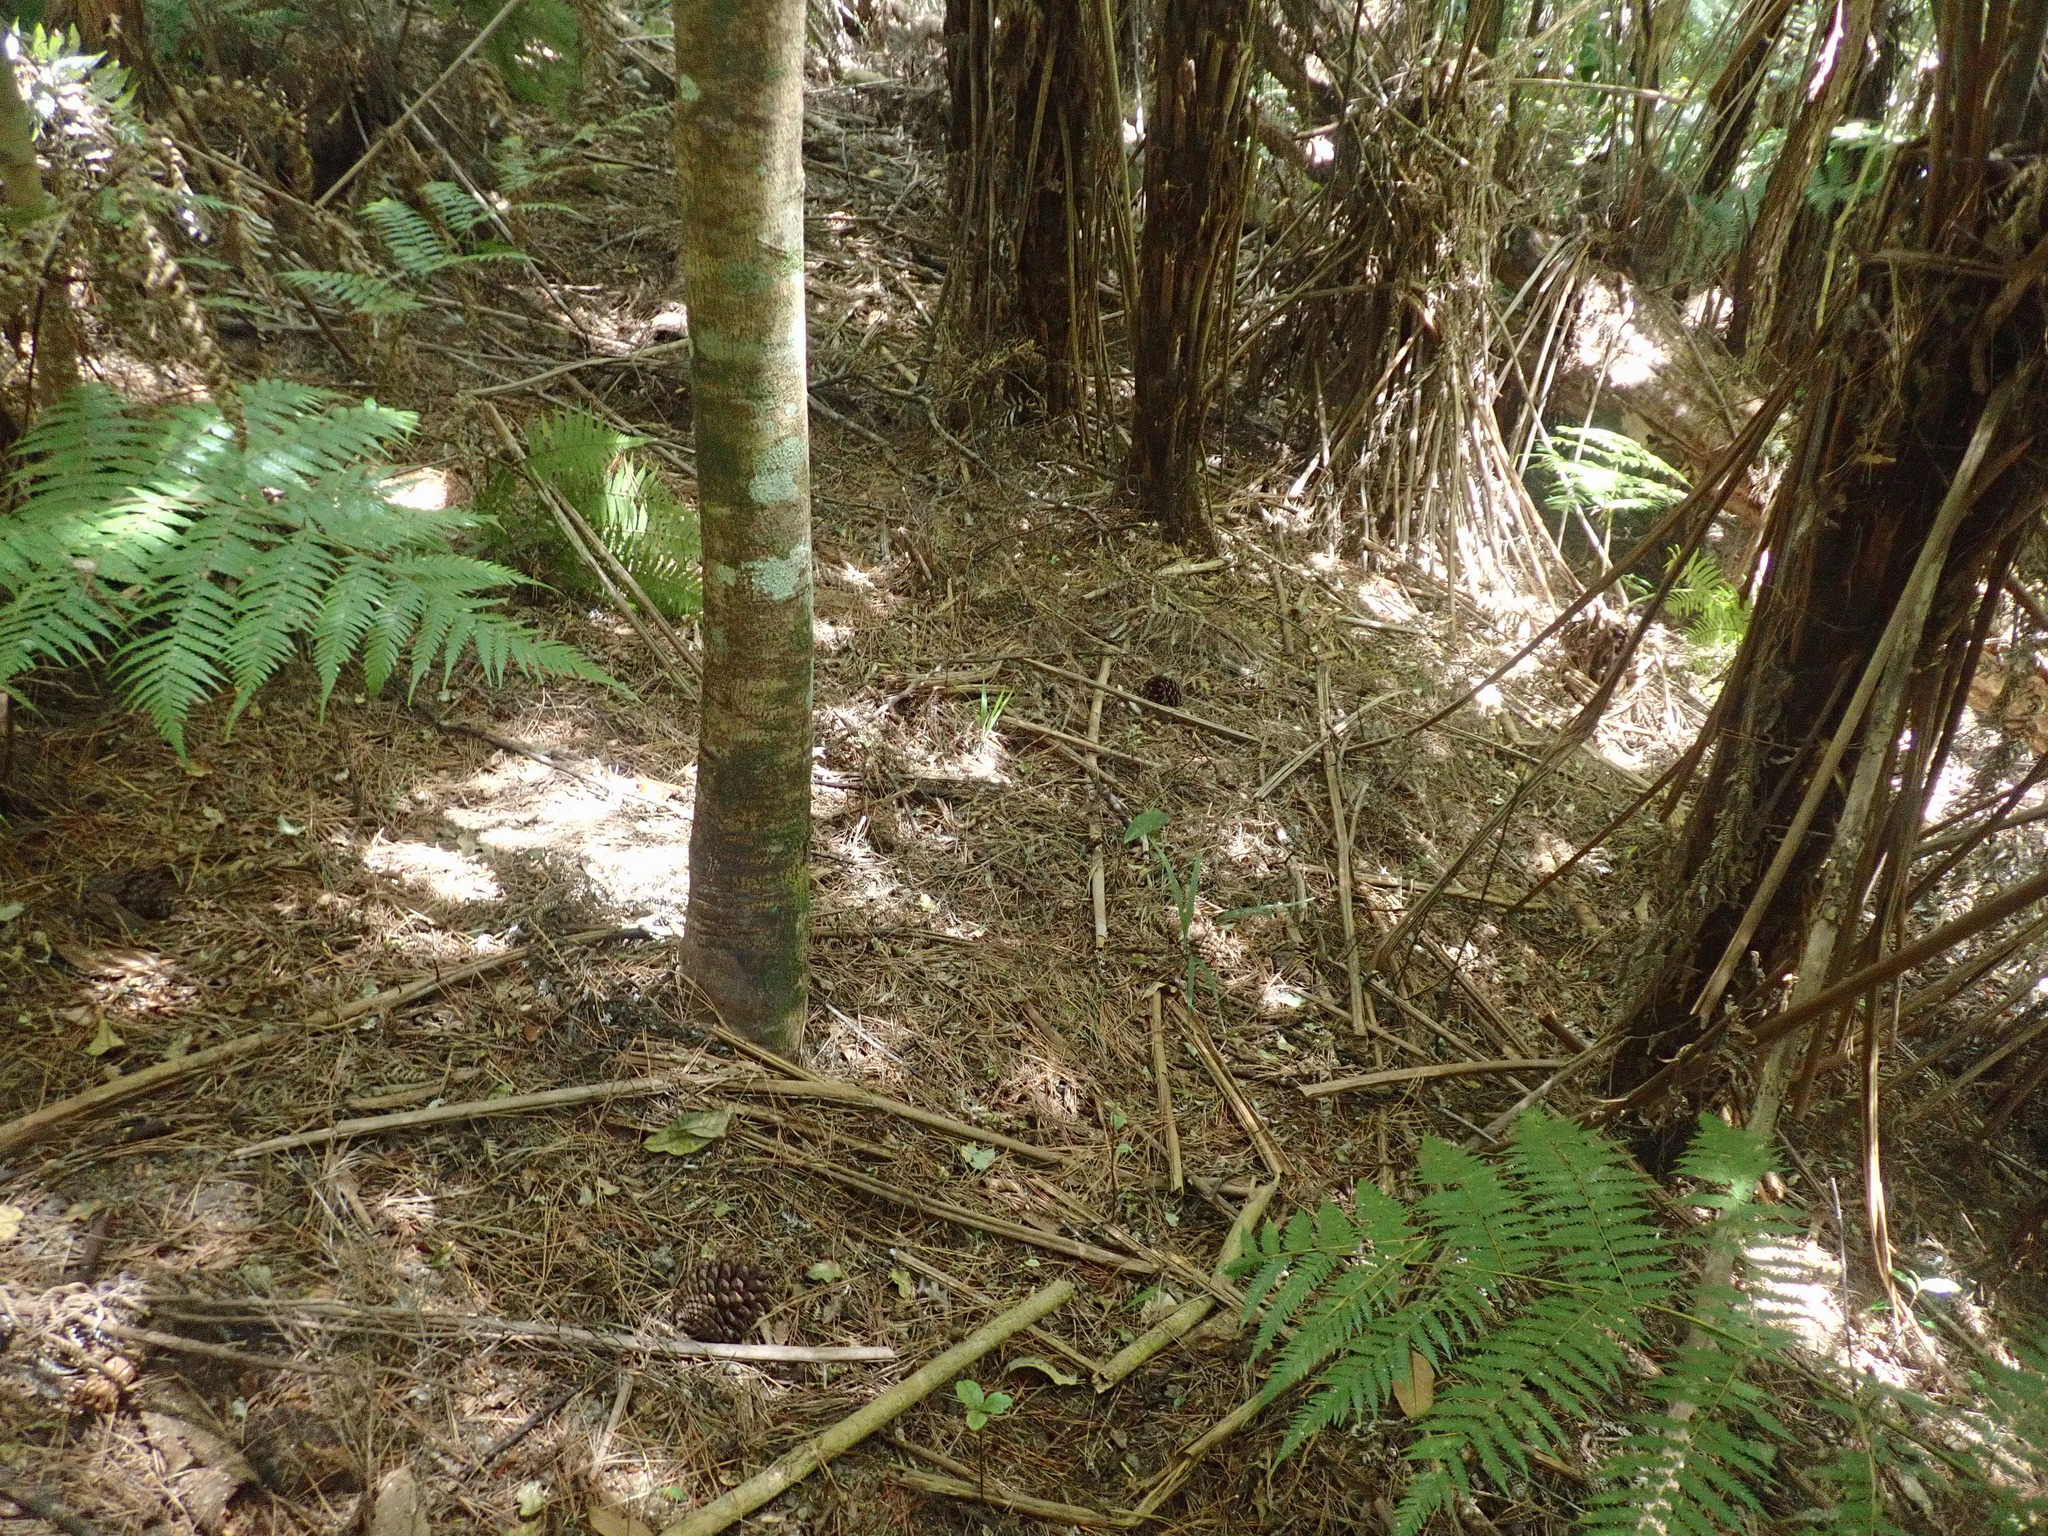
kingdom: Plantae
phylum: Tracheophyta
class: Liliopsida
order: Arecales
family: Arecaceae
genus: Rhopalostylis
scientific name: Rhopalostylis sapida
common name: Feather-duster palm
